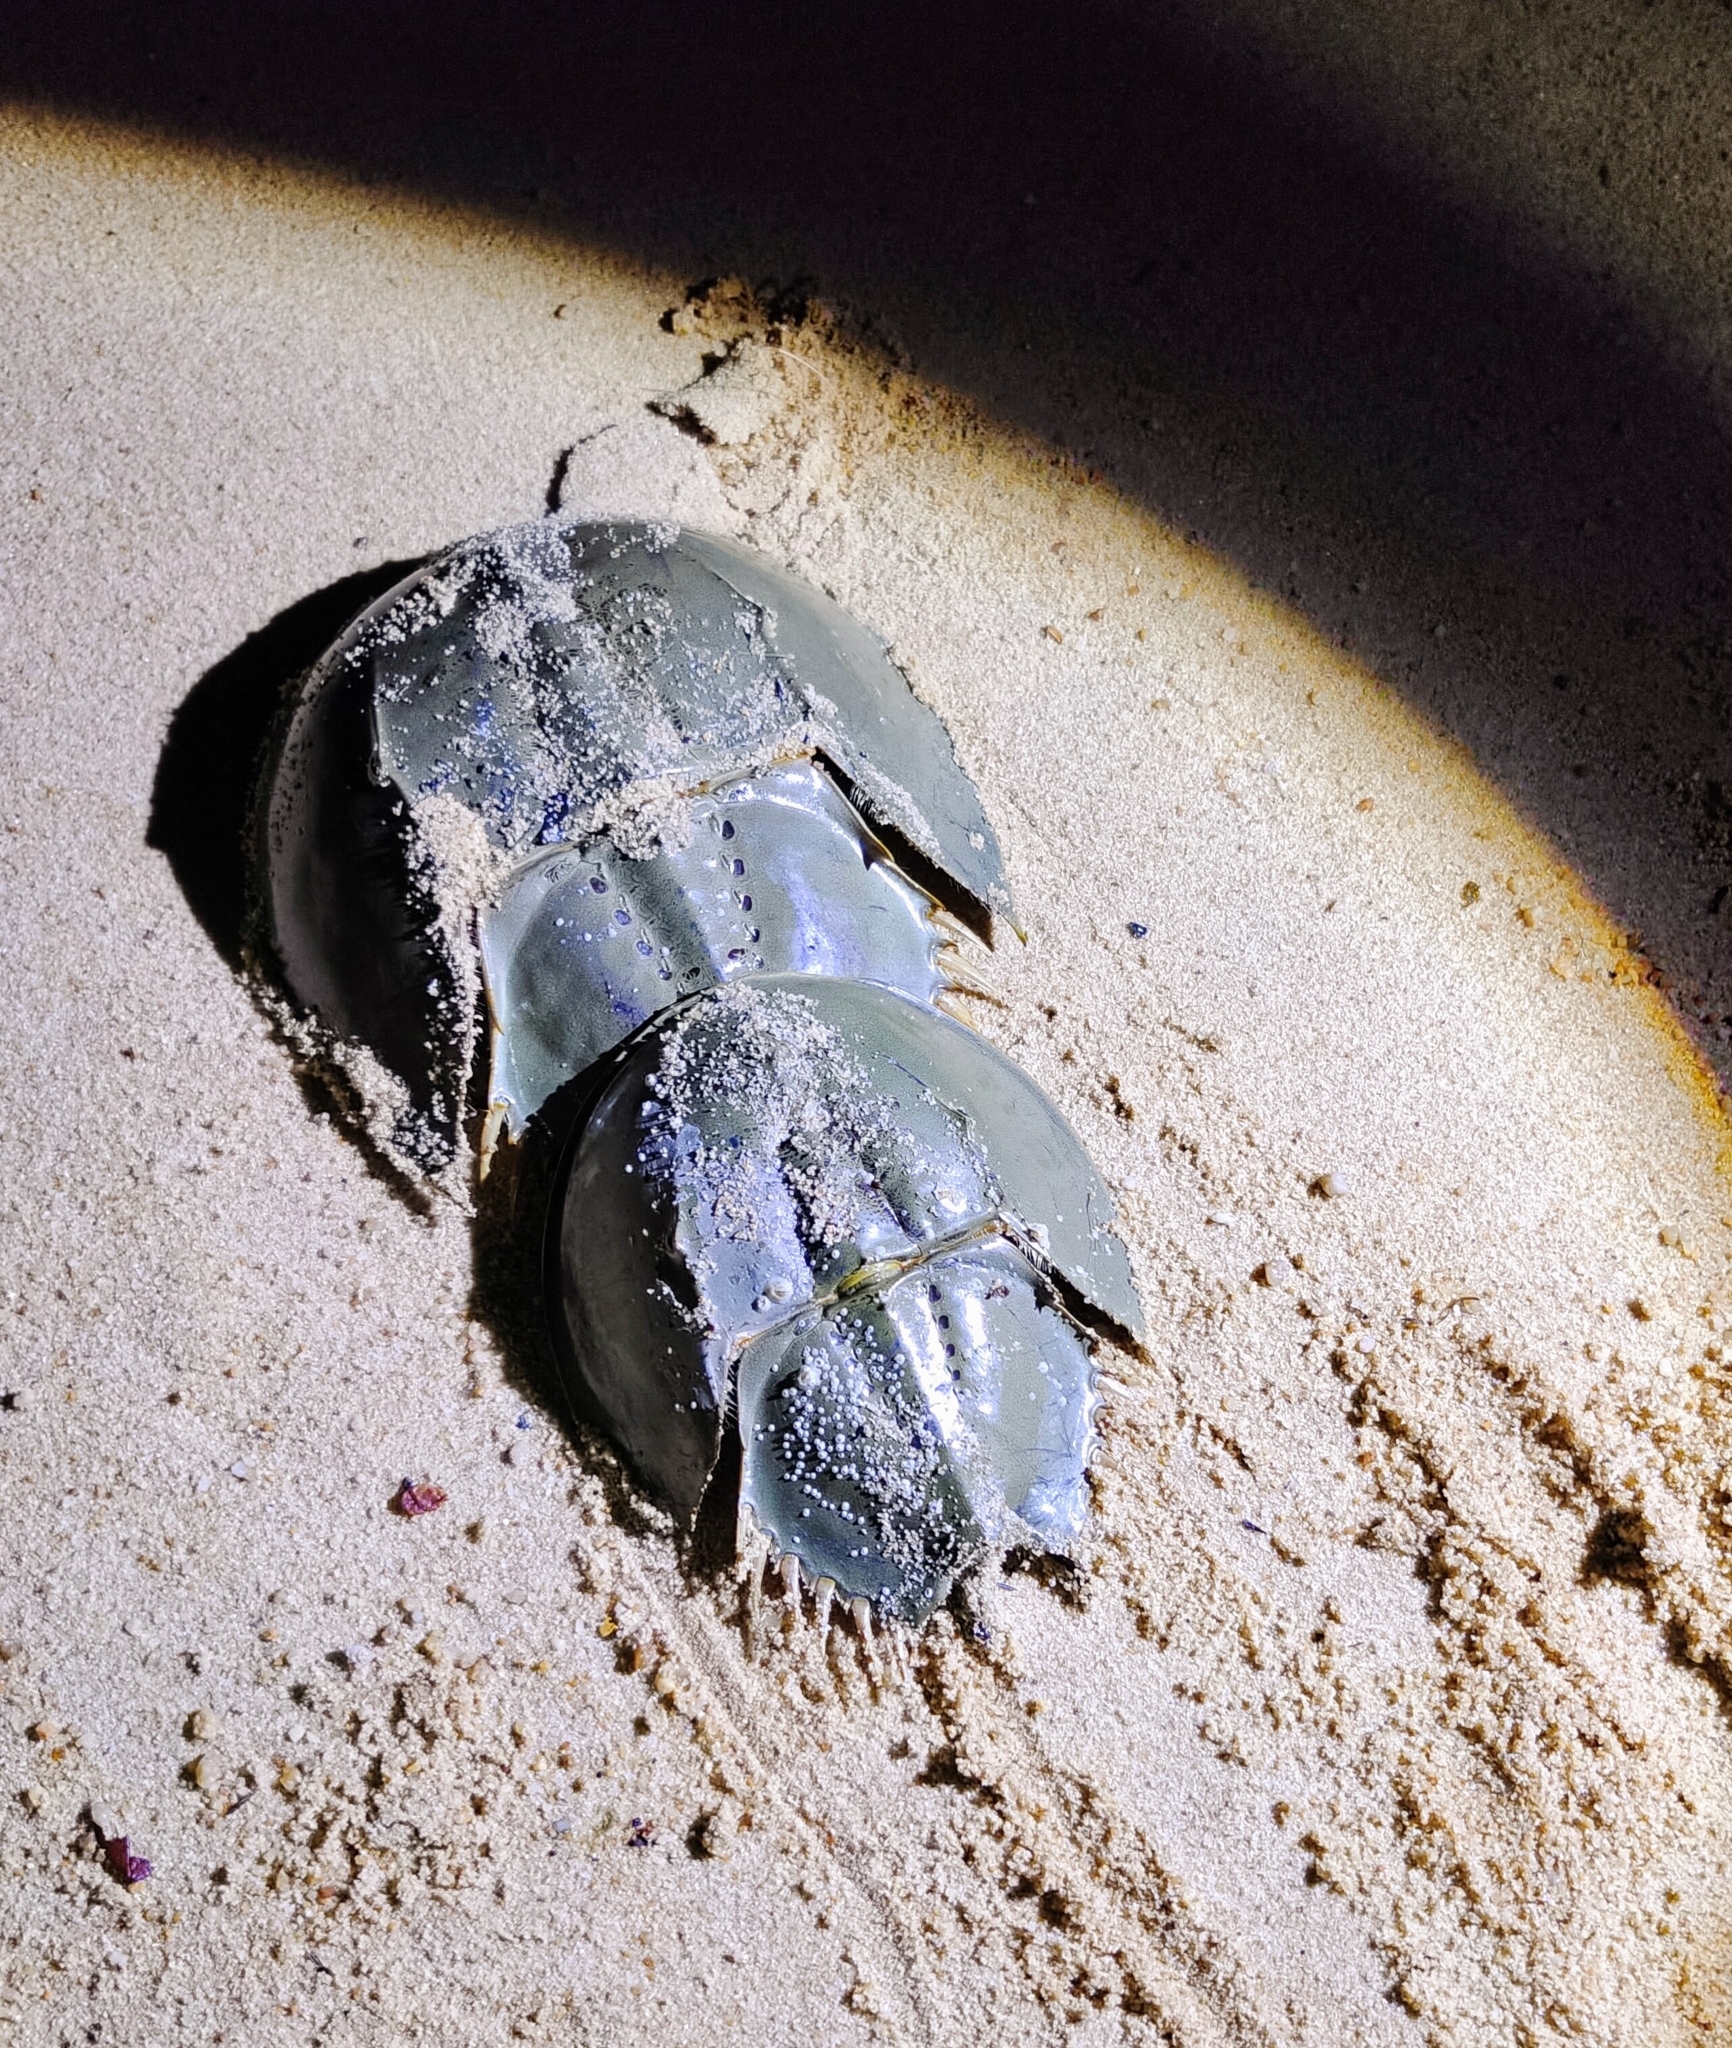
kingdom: Animalia
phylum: Arthropoda
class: Merostomata
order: Xiphosurida
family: Limulidae
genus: Tachypleus
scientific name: Tachypleus gigas
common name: Coastal horseshoe crab
